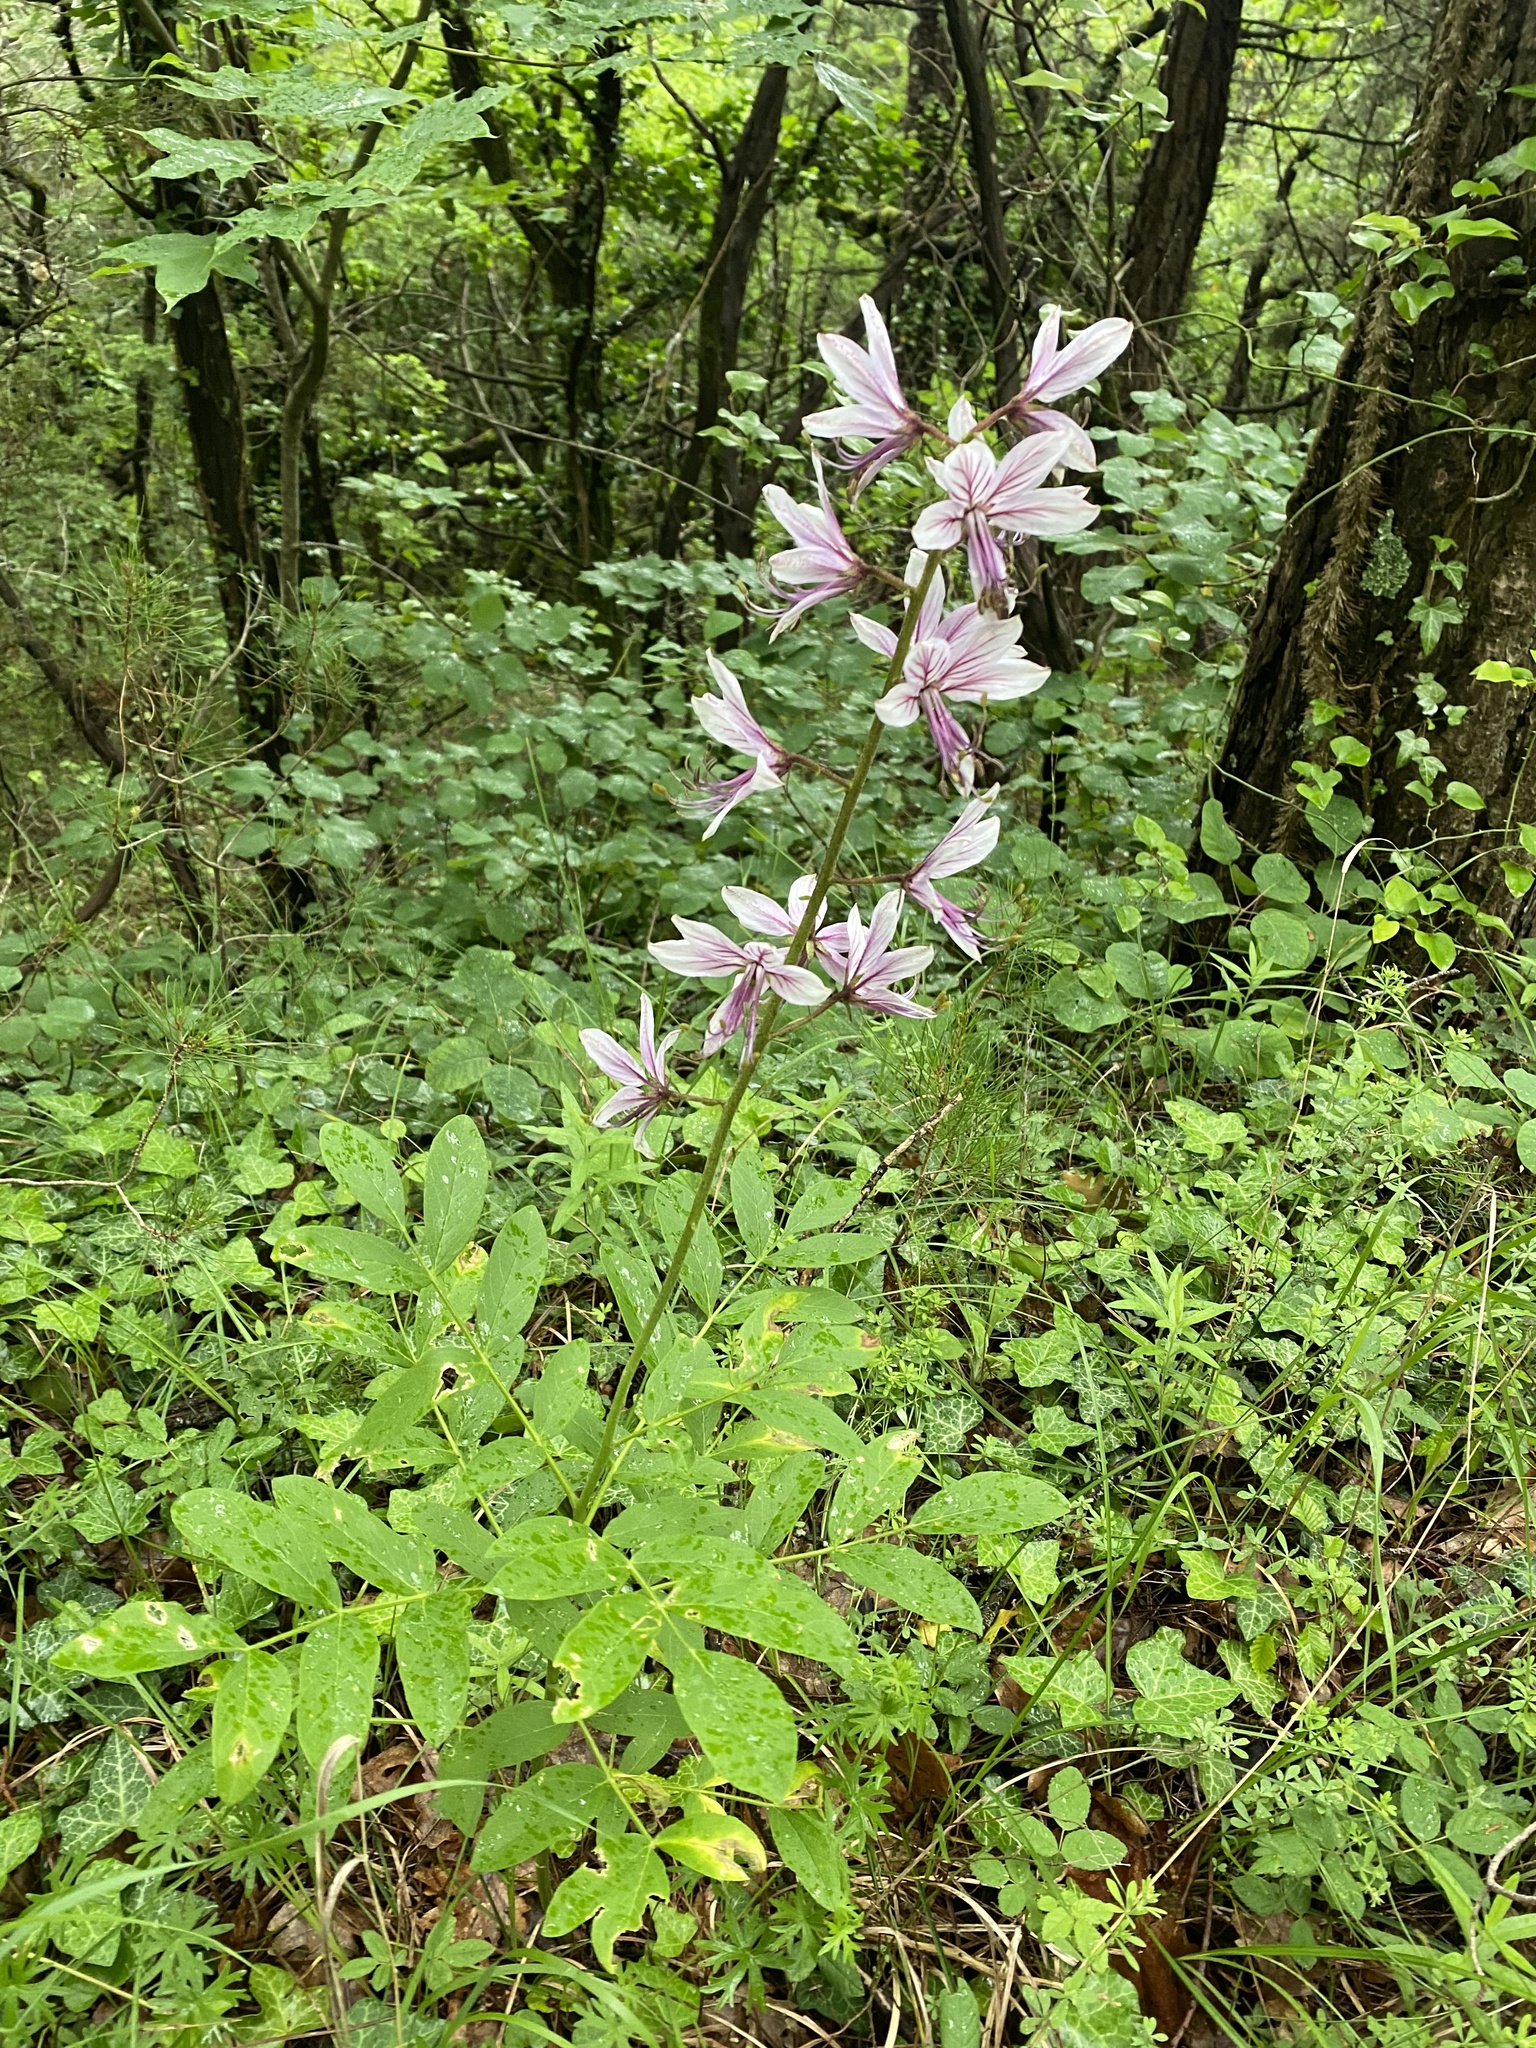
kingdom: Plantae
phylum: Tracheophyta
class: Magnoliopsida
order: Sapindales
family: Rutaceae
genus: Dictamnus
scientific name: Dictamnus albus
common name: Gasplant
